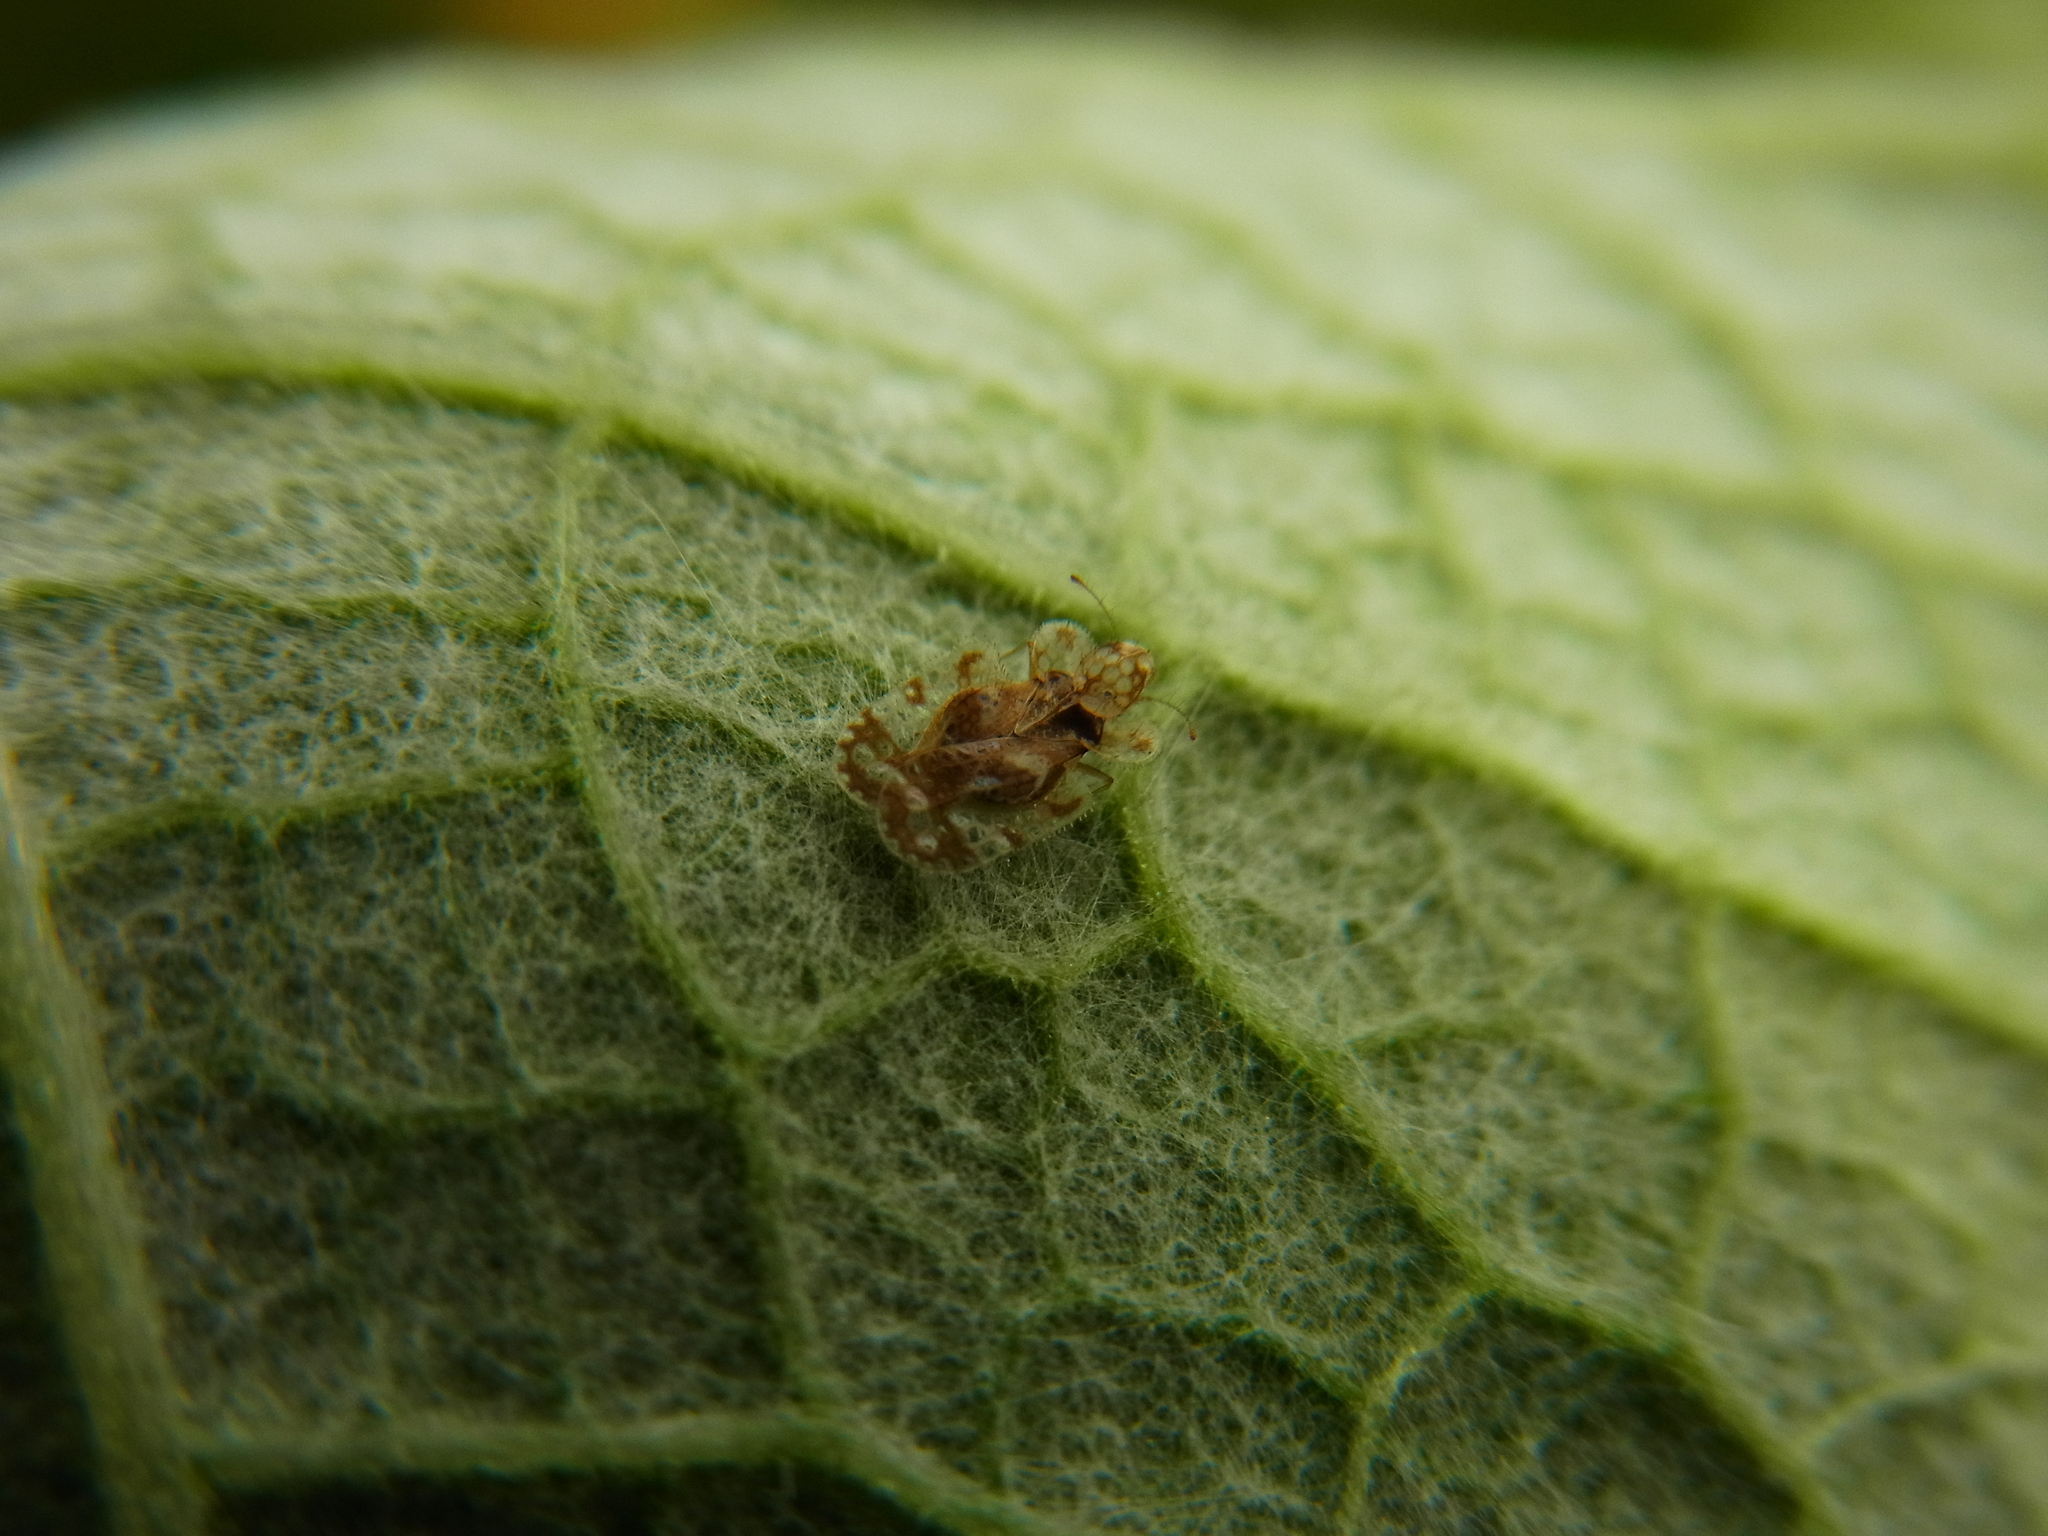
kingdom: Animalia
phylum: Arthropoda
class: Insecta
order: Hemiptera
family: Tingidae
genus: Corythucha
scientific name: Corythucha marmorata
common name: Chrysanthemum lace bug
